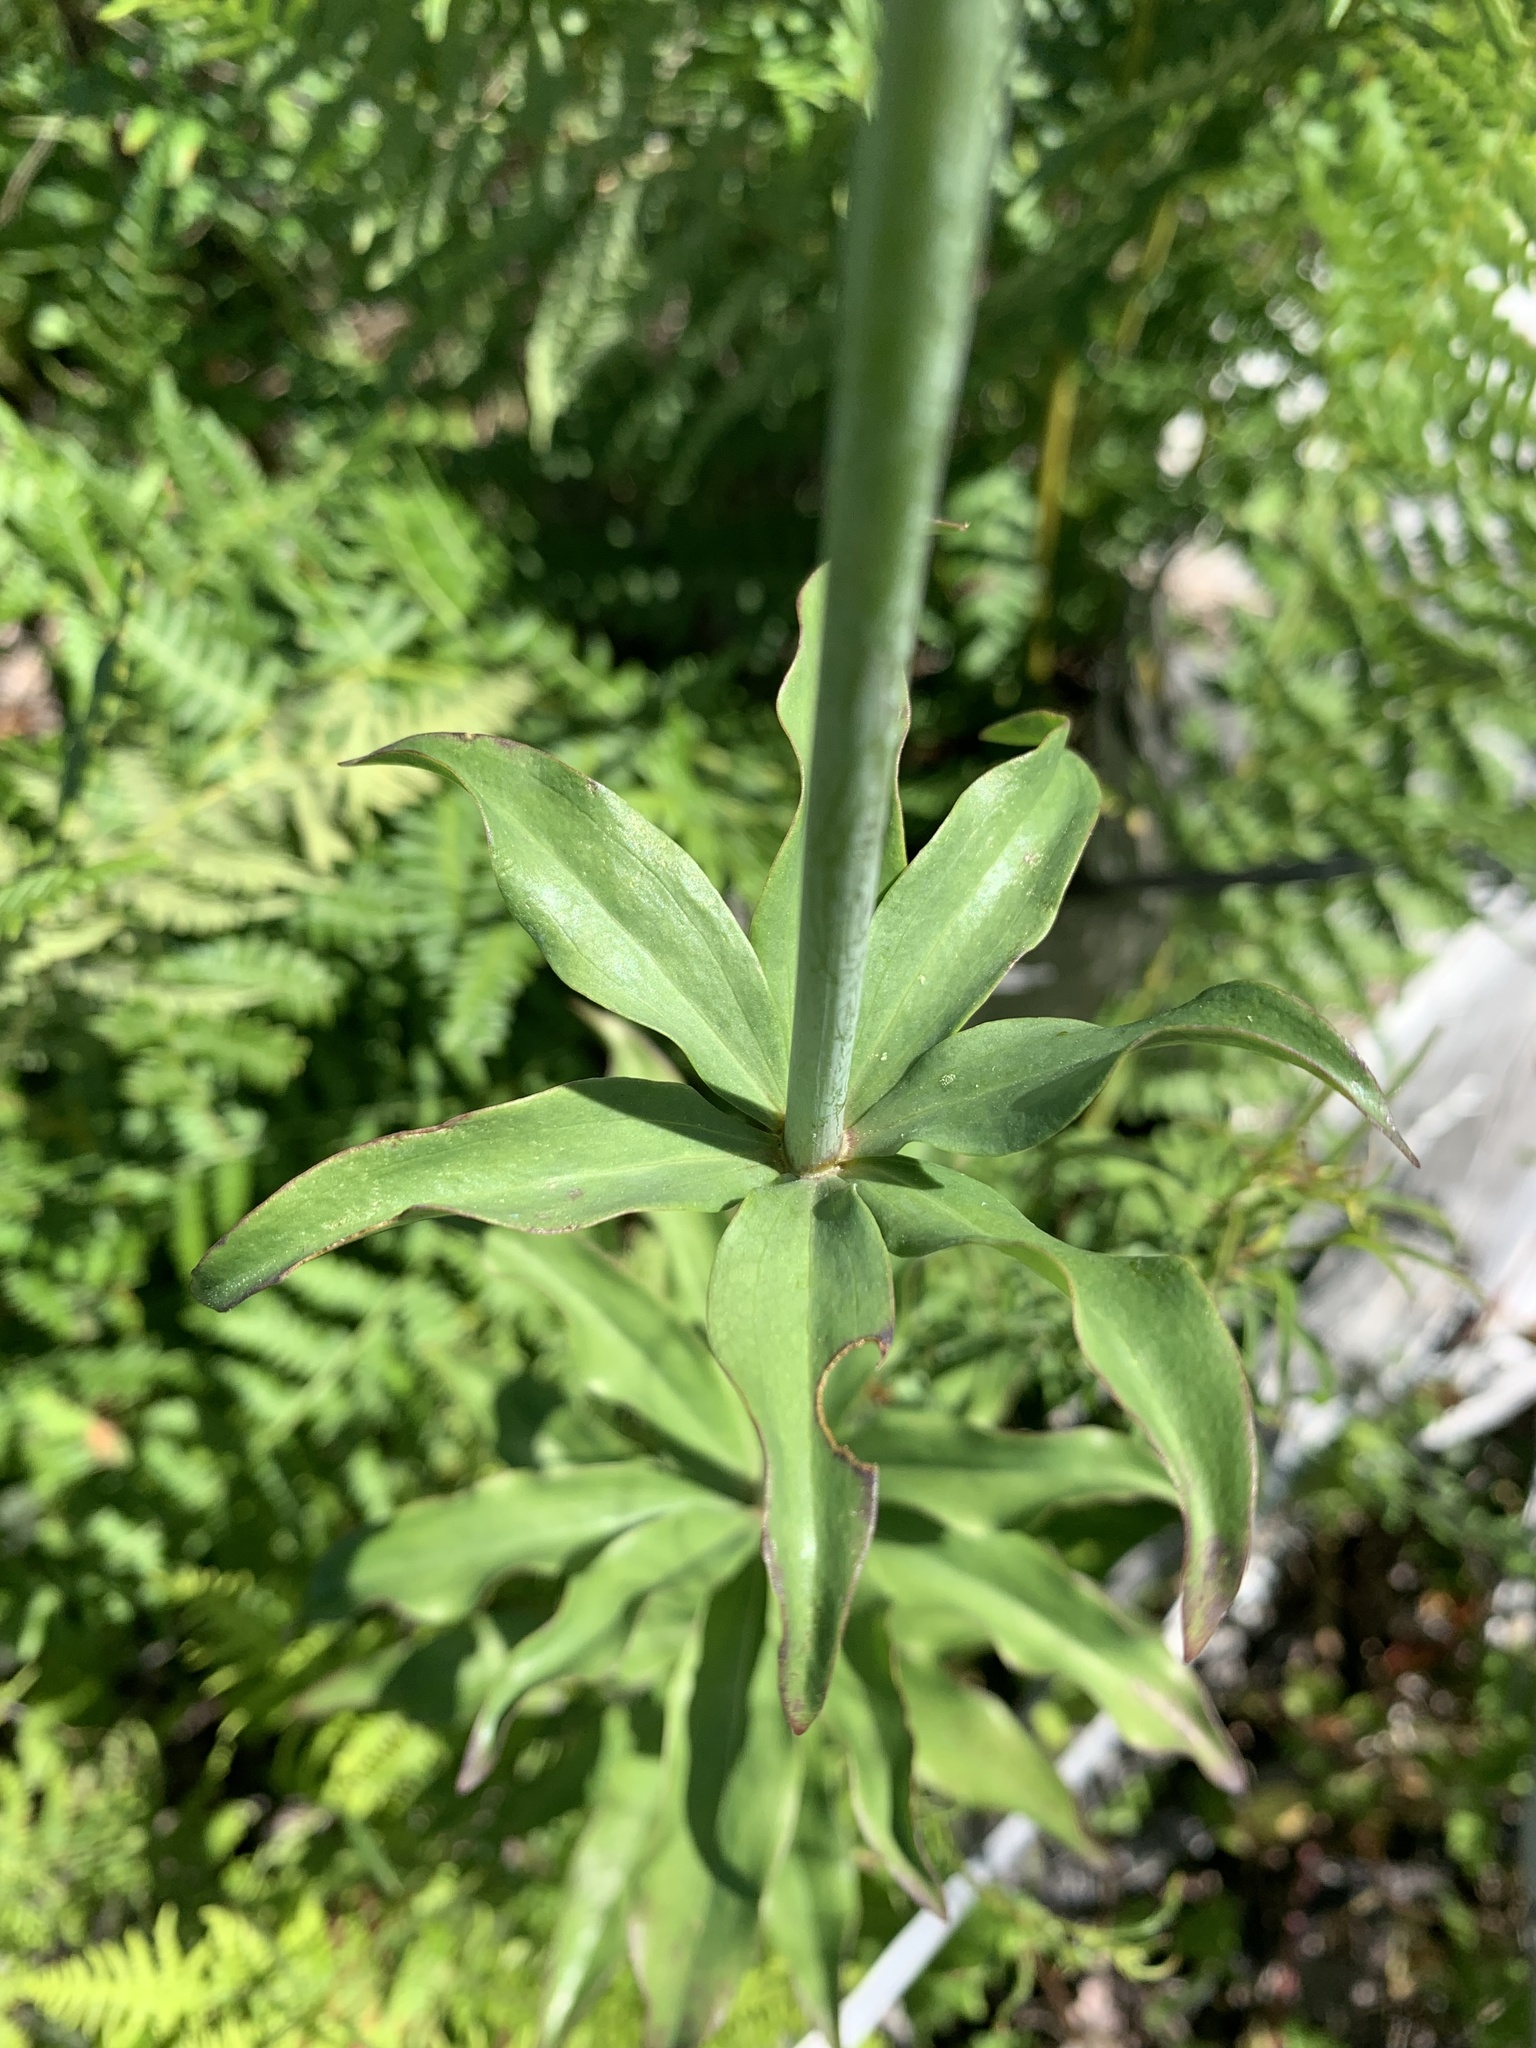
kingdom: Plantae
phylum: Tracheophyta
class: Liliopsida
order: Liliales
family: Liliaceae
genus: Lilium
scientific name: Lilium columbianum
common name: Columbia lily
